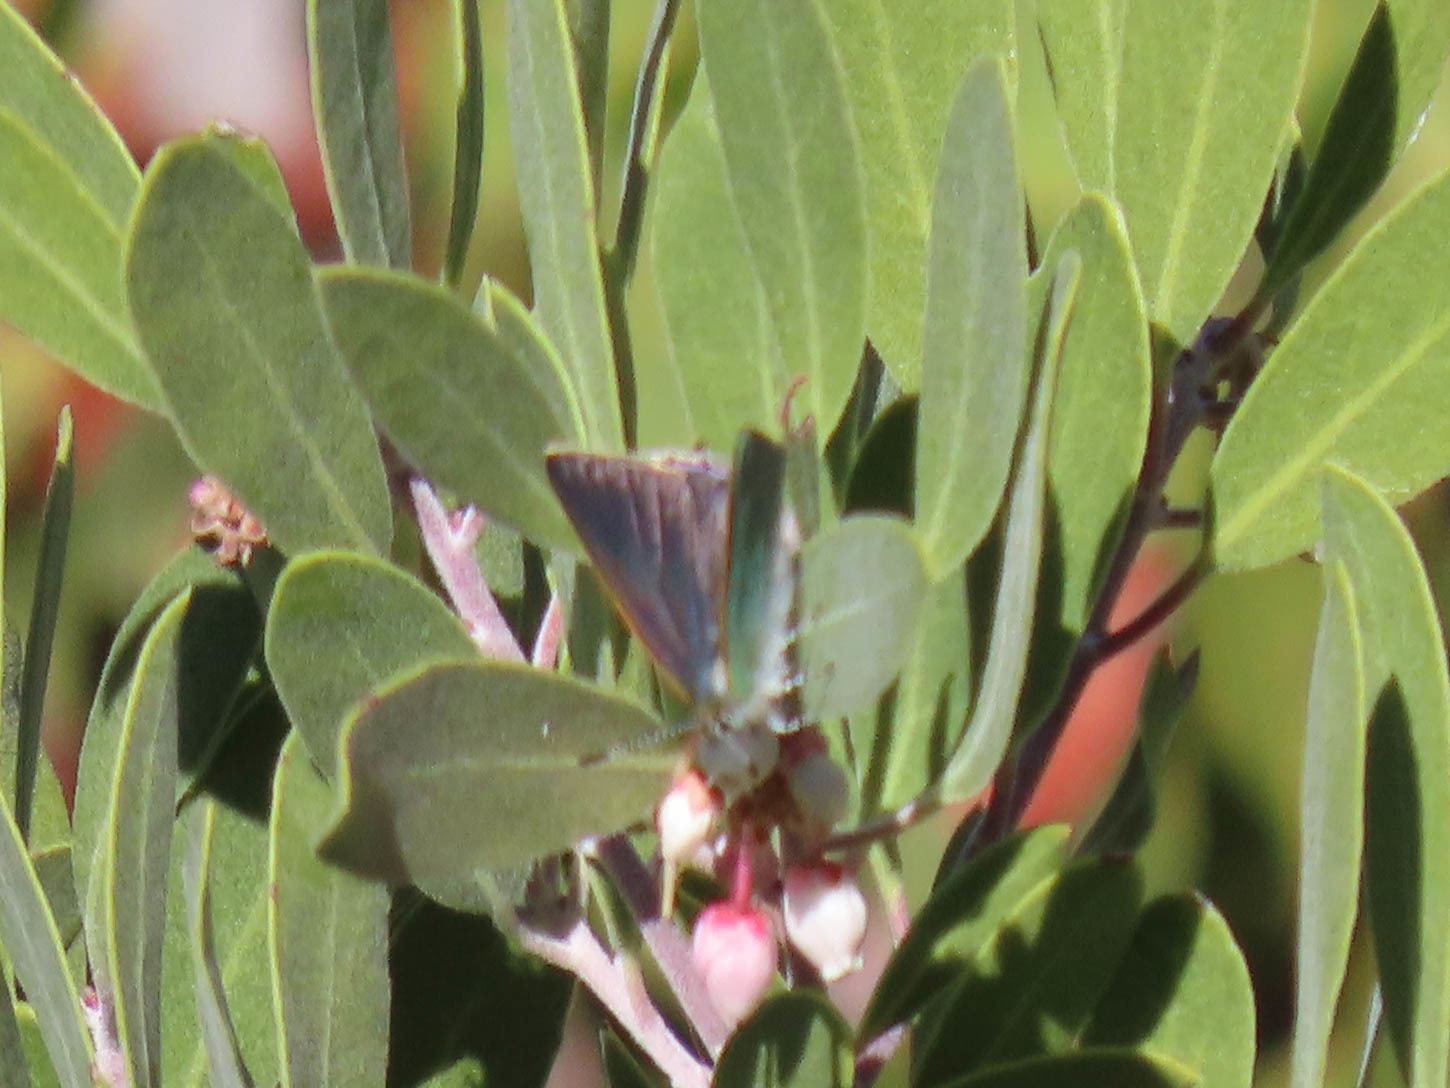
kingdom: Animalia
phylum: Arthropoda
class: Insecta
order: Lepidoptera
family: Lycaenidae
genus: Erora
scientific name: Erora quaderna
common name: Arizona hairstreak
